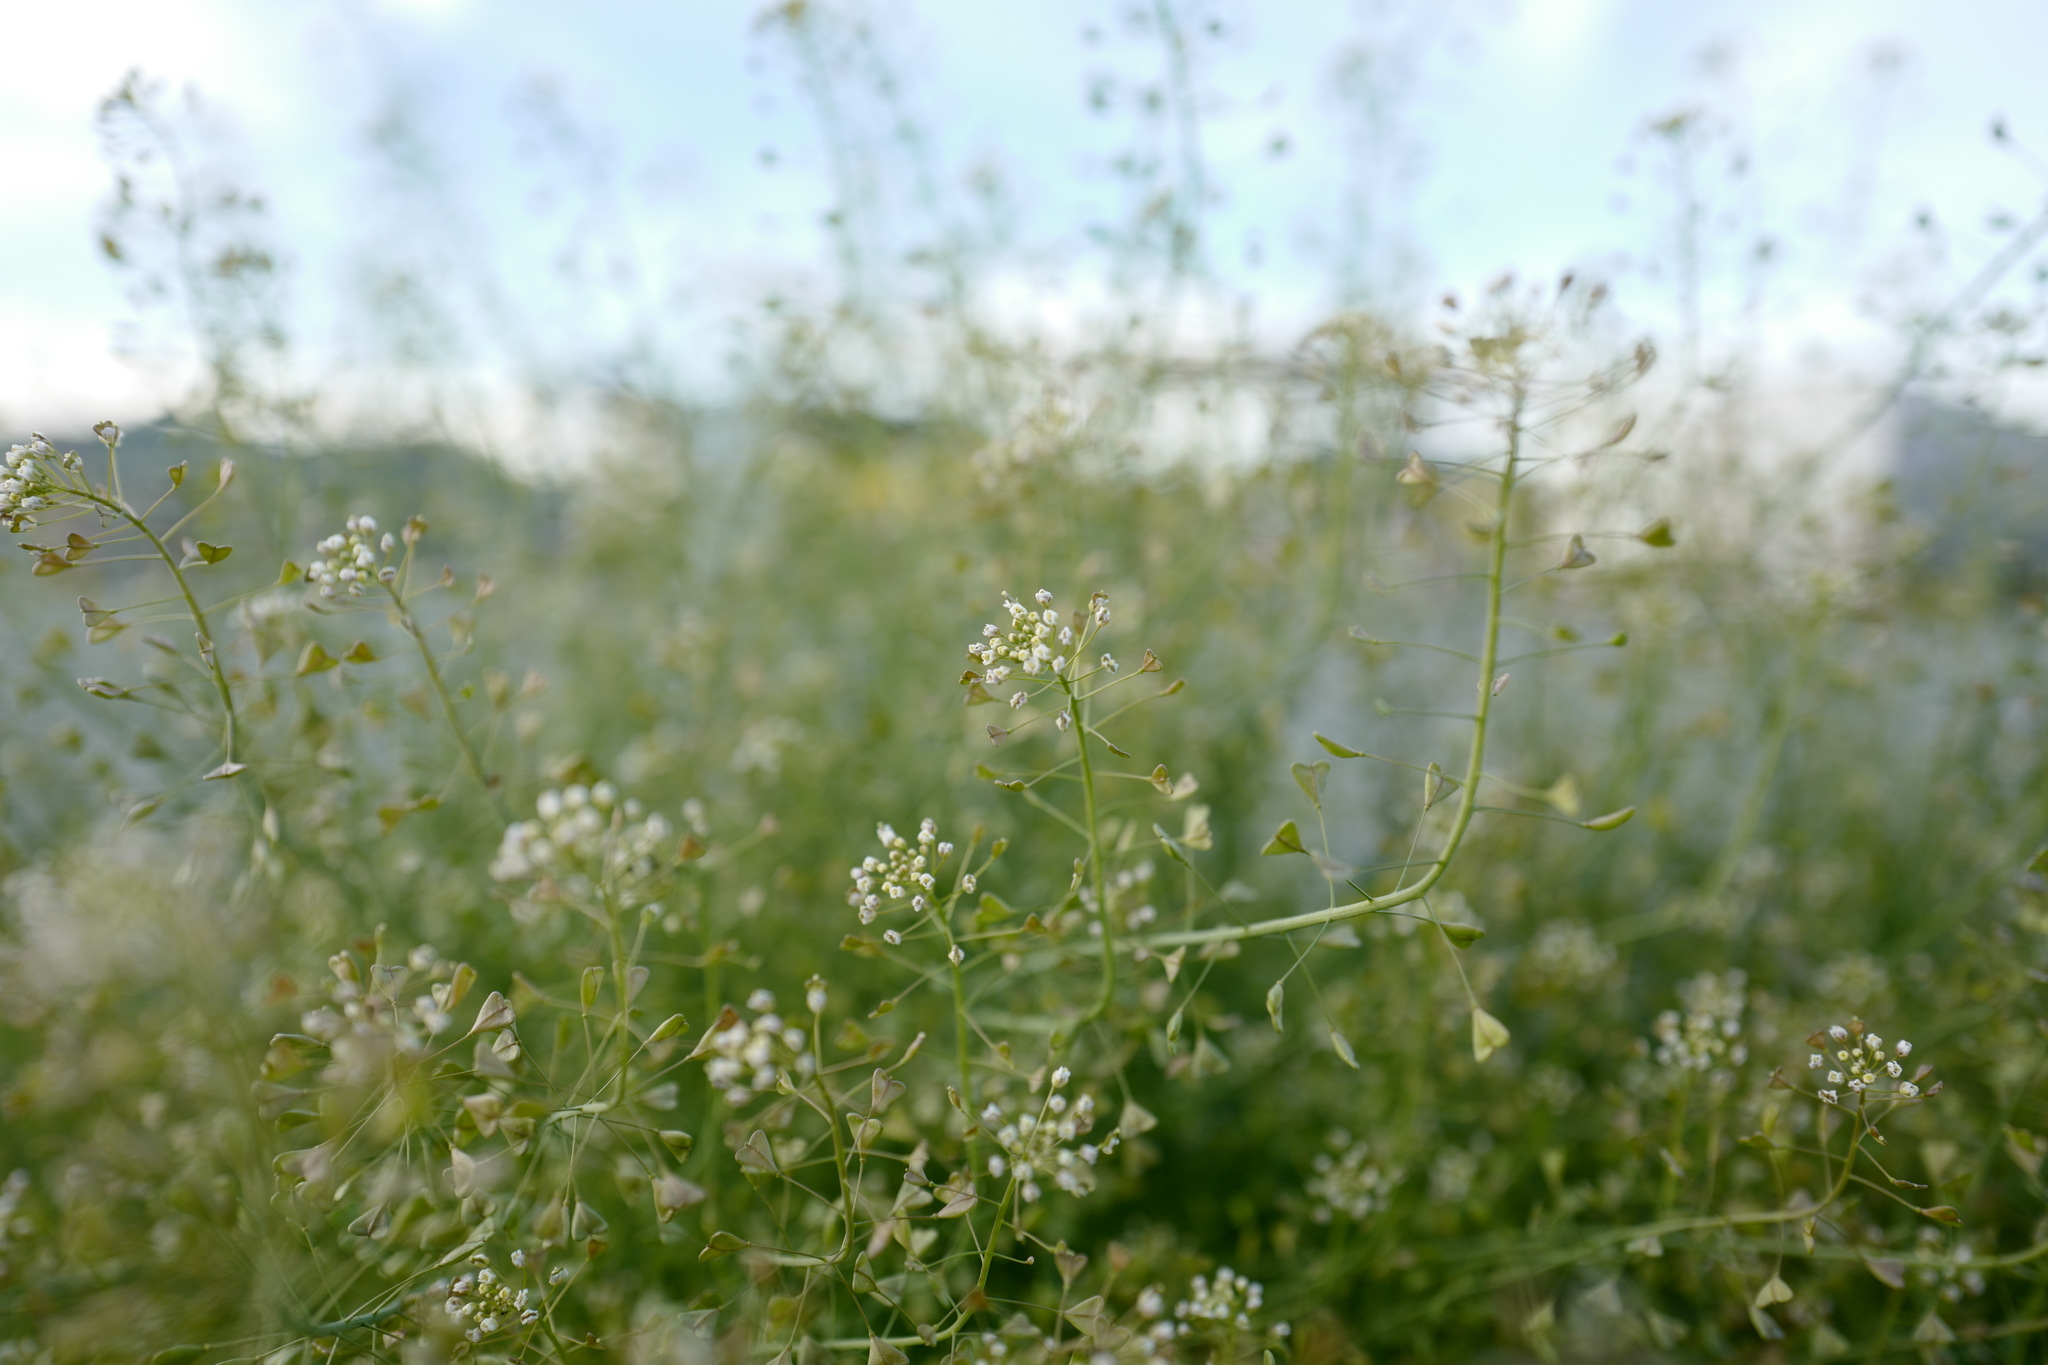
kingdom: Plantae
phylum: Tracheophyta
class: Magnoliopsida
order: Brassicales
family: Brassicaceae
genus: Capsella
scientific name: Capsella bursa-pastoris
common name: Shepherd's purse
